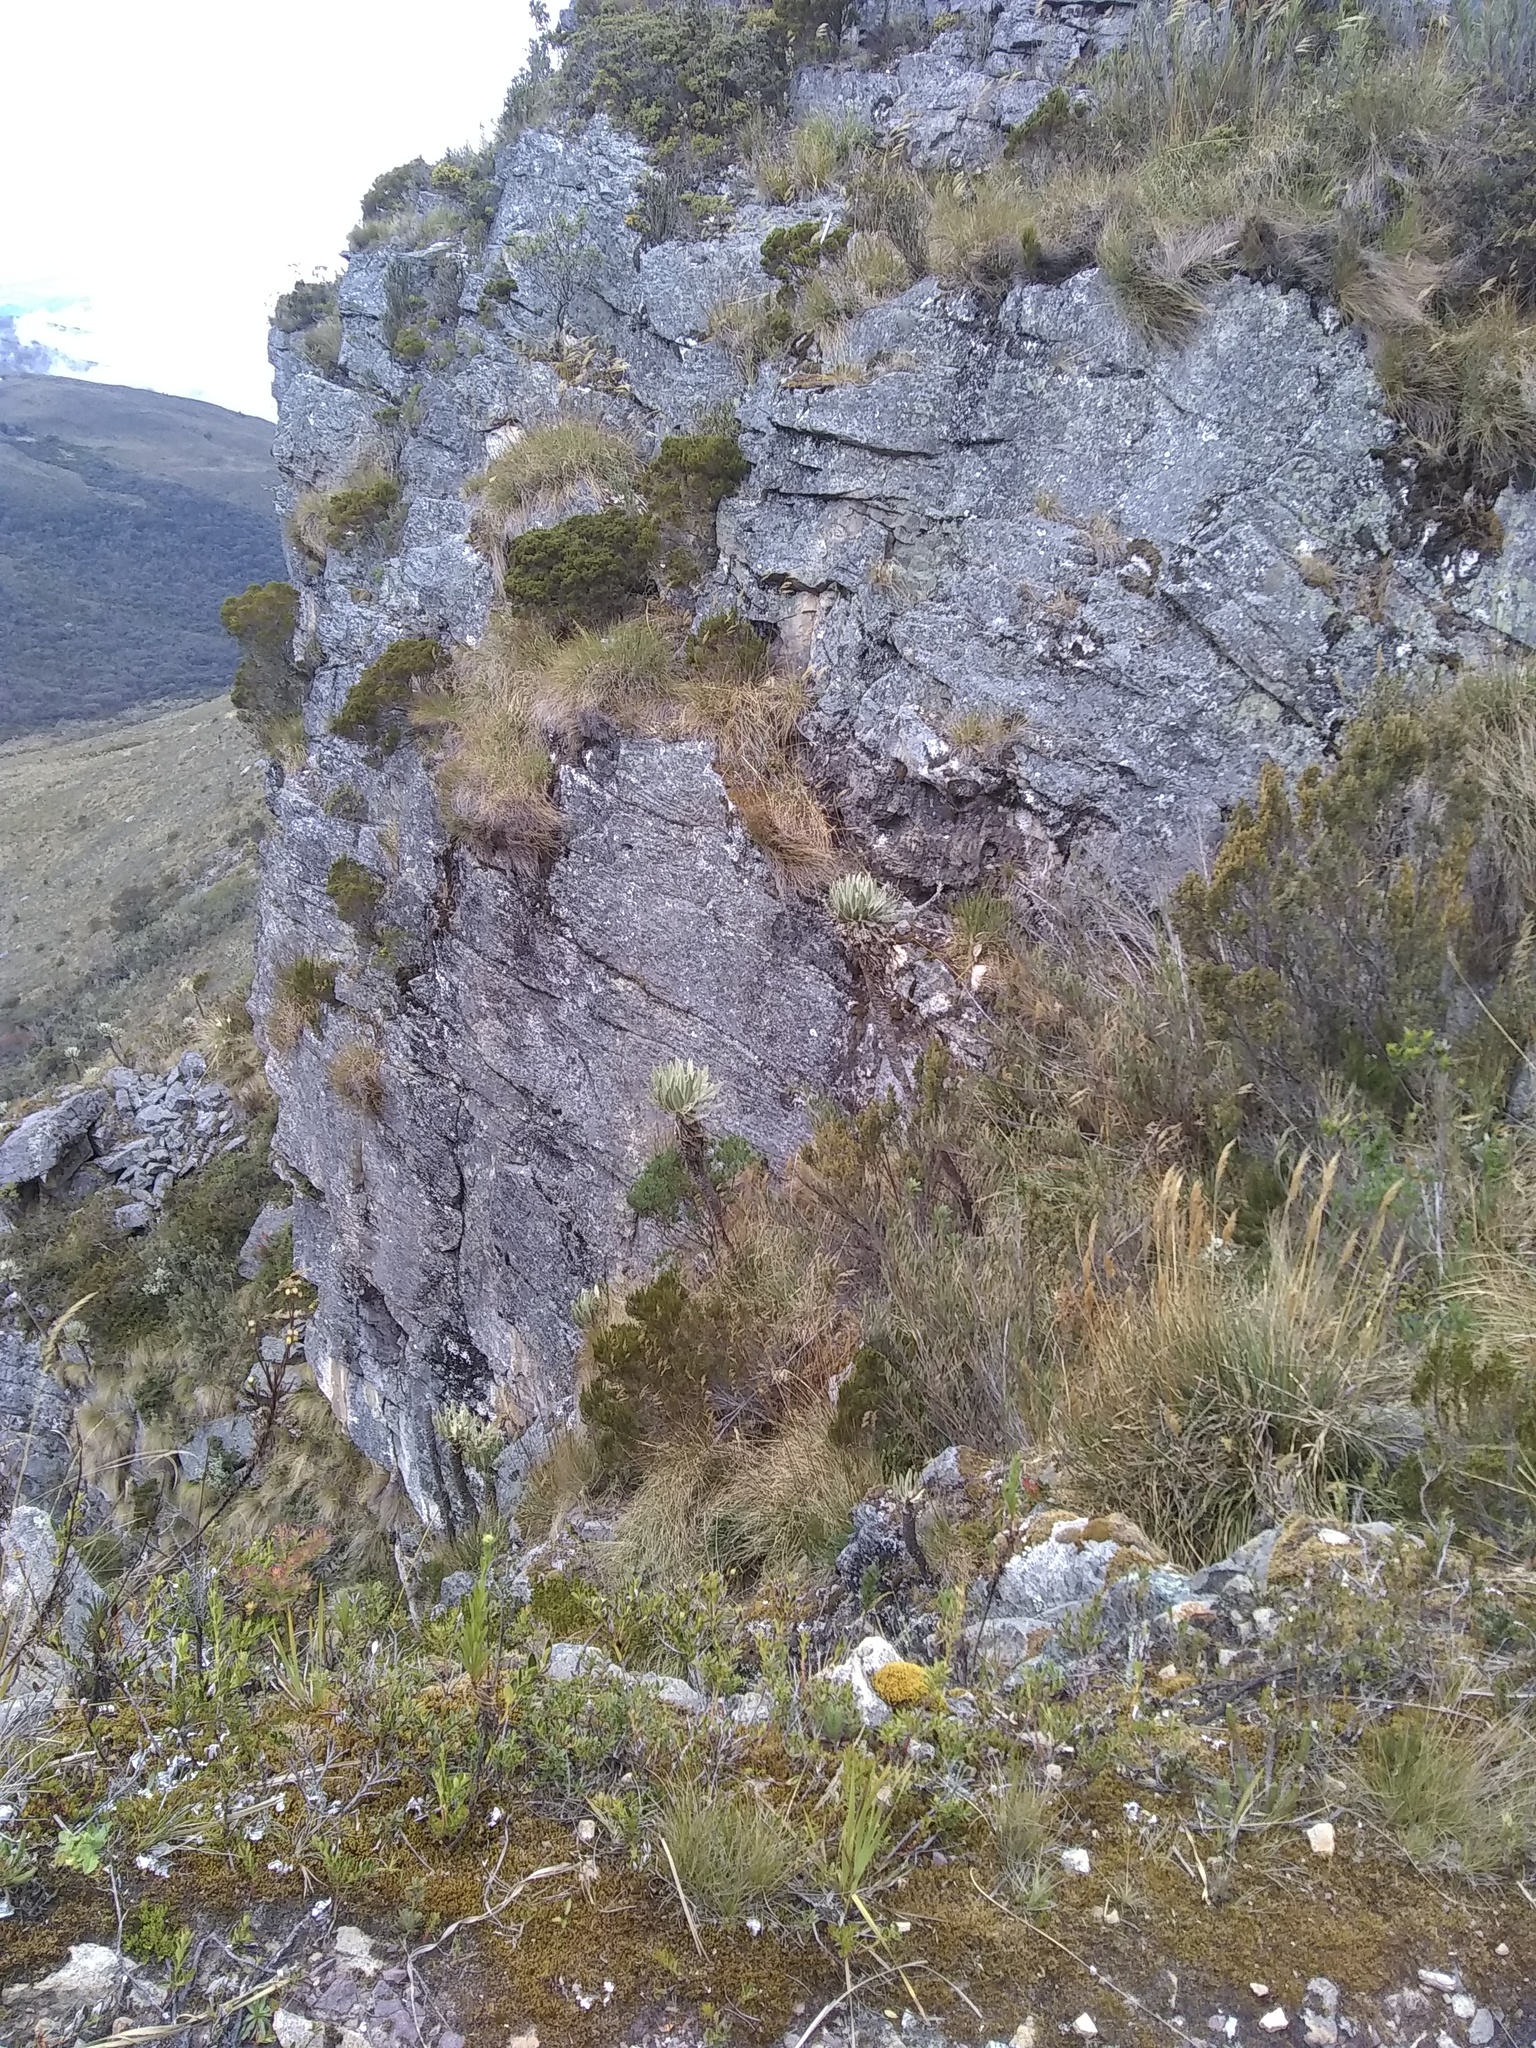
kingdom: Plantae
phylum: Tracheophyta
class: Magnoliopsida
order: Asterales
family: Asteraceae
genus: Espeletia
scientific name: Espeletia cachaluensis
